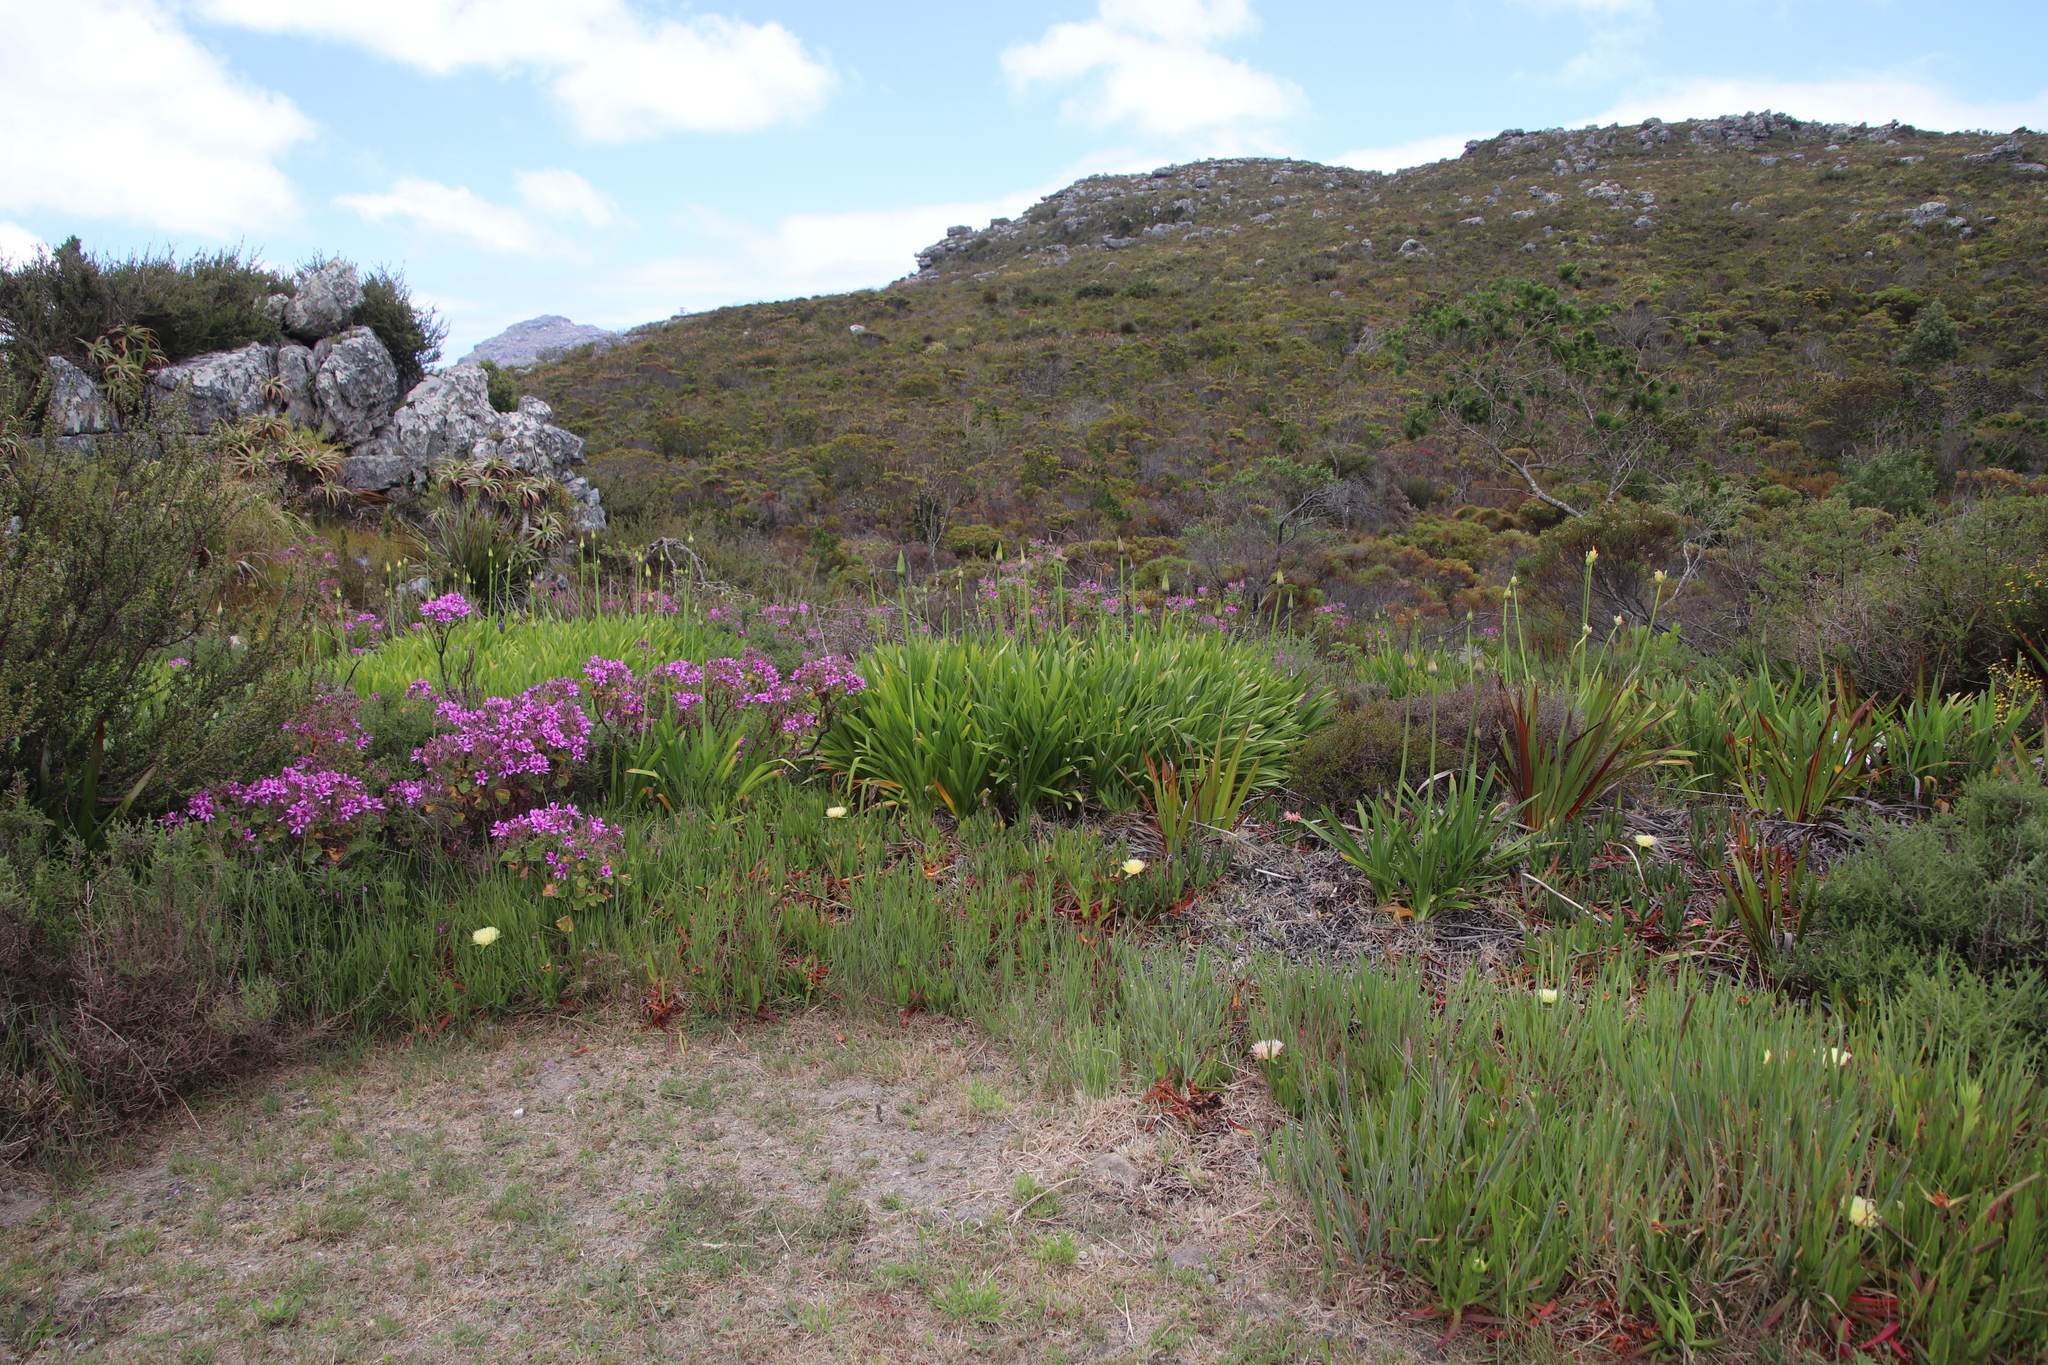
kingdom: Plantae
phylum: Tracheophyta
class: Liliopsida
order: Asparagales
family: Amaryllidaceae
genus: Agapanthus
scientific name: Agapanthus praecox
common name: African-lily
